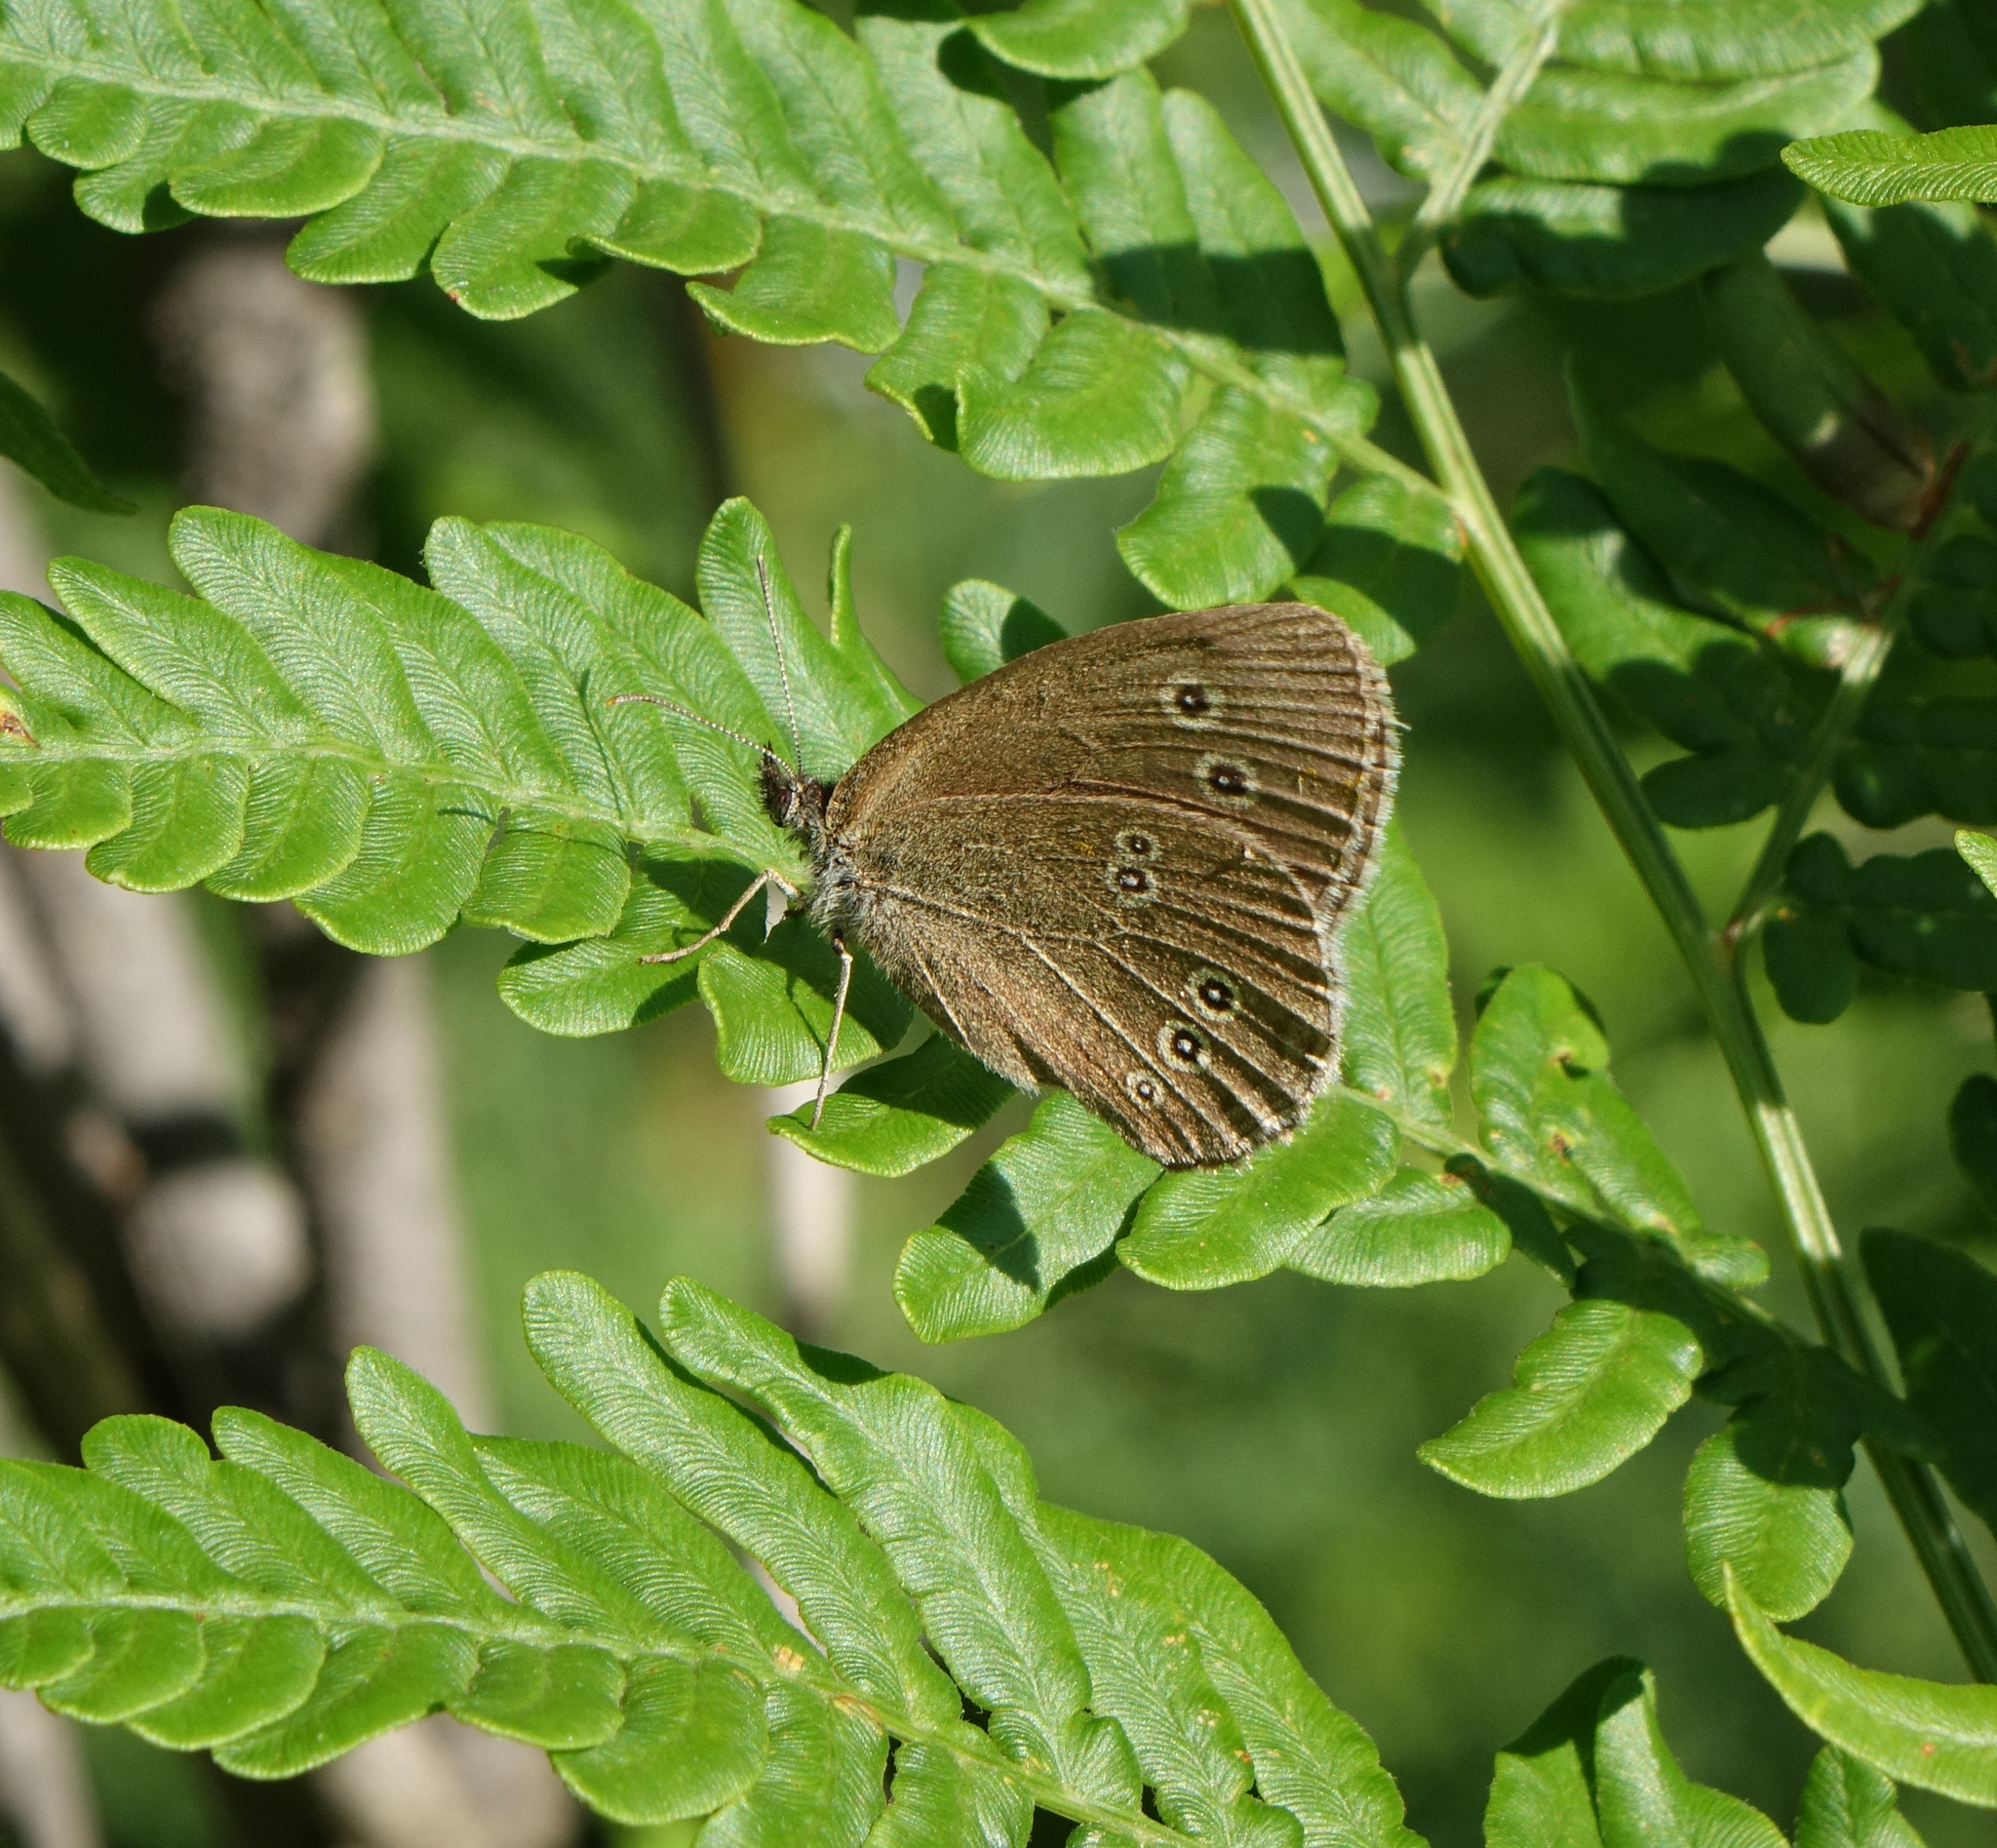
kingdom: Animalia
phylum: Arthropoda
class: Insecta
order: Lepidoptera
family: Nymphalidae
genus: Aphantopus
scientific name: Aphantopus hyperantus
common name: Ringlet
